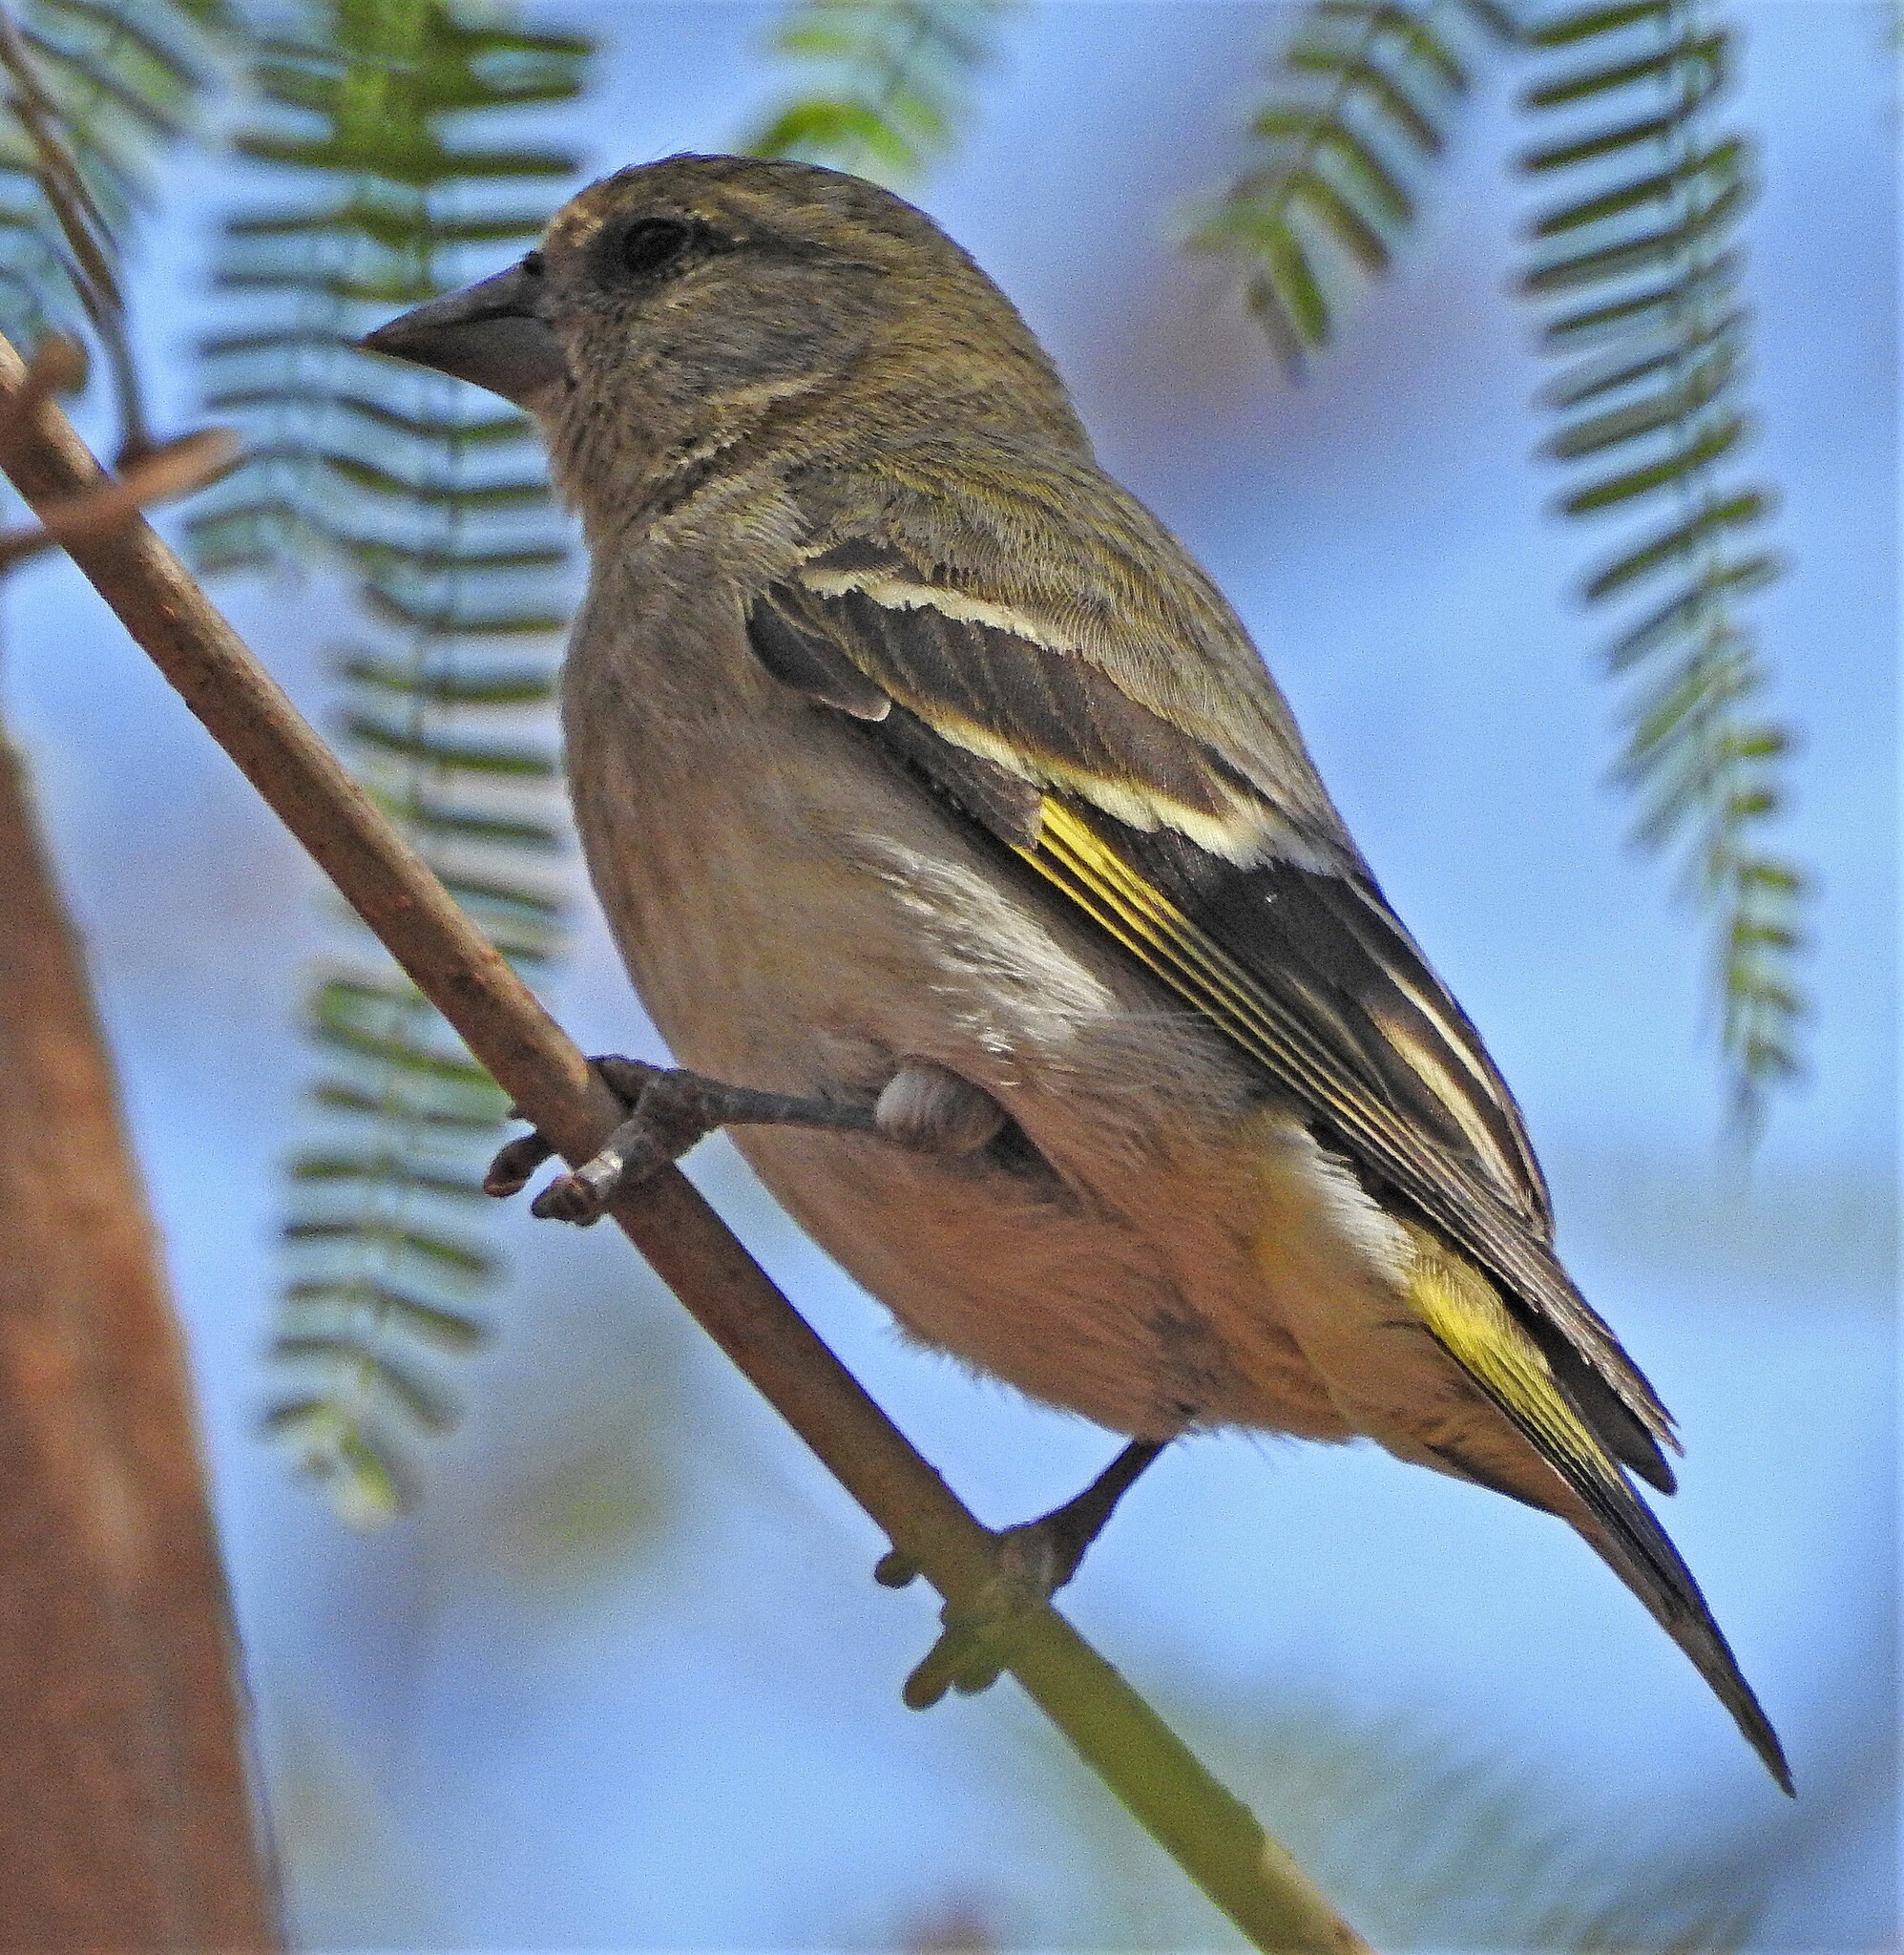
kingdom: Animalia
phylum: Chordata
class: Aves
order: Passeriformes
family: Fringillidae
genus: Spinus
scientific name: Spinus magellanicus
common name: Hooded siskin
